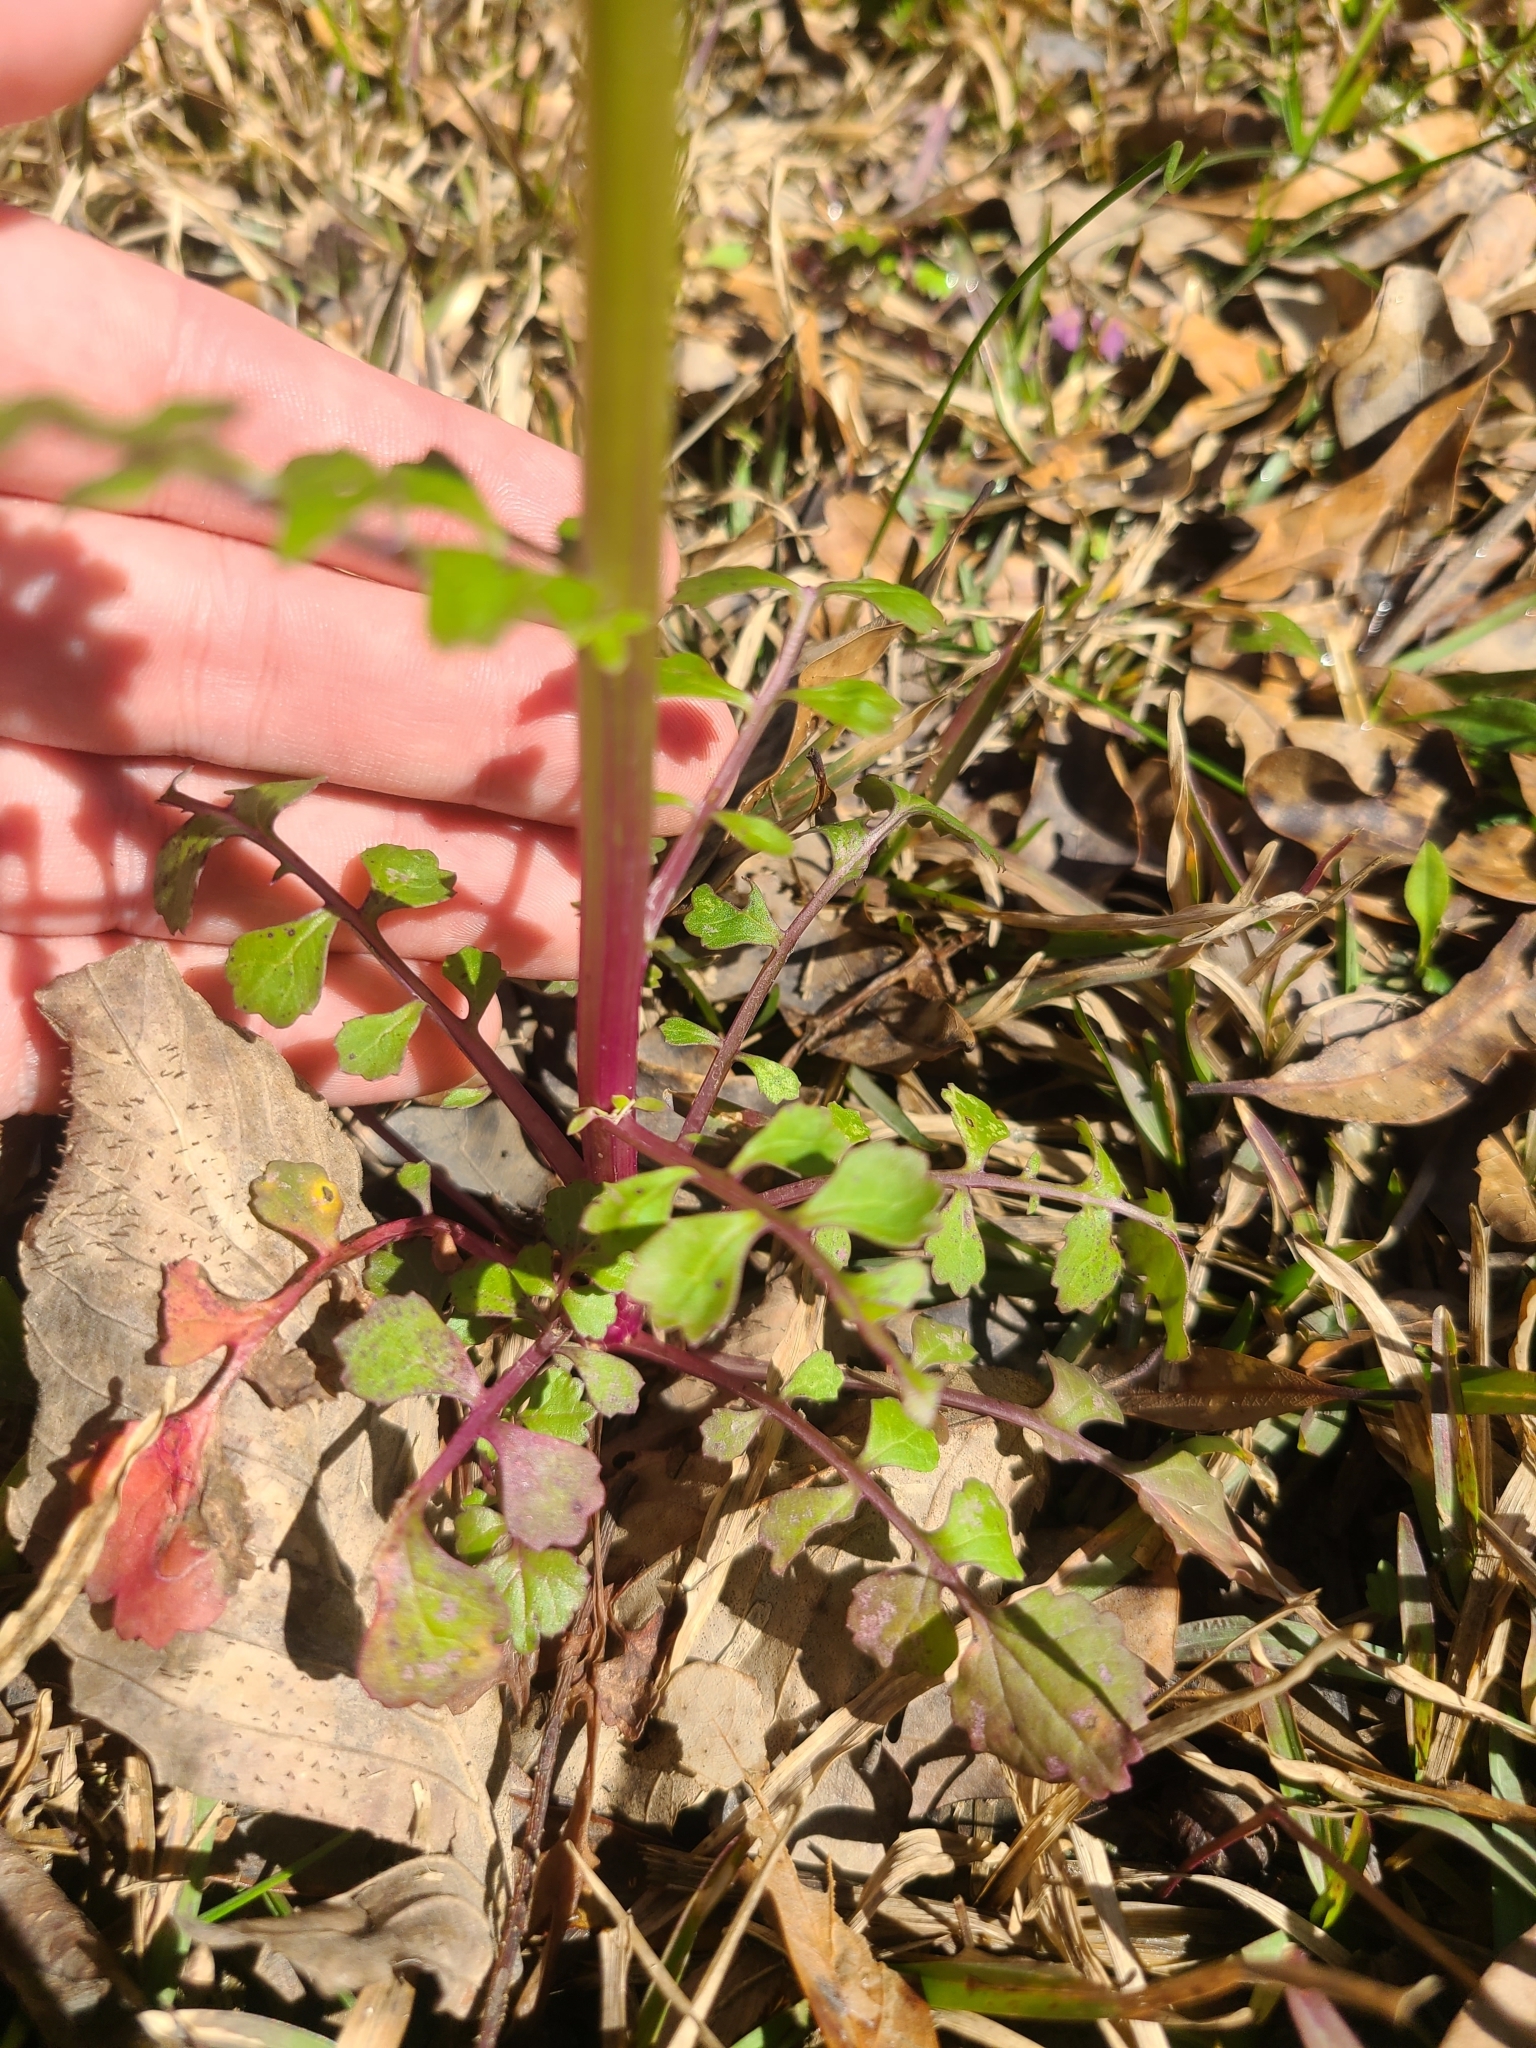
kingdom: Plantae
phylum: Tracheophyta
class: Magnoliopsida
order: Asterales
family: Asteraceae
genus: Packera
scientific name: Packera glabella
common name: Butterweed
